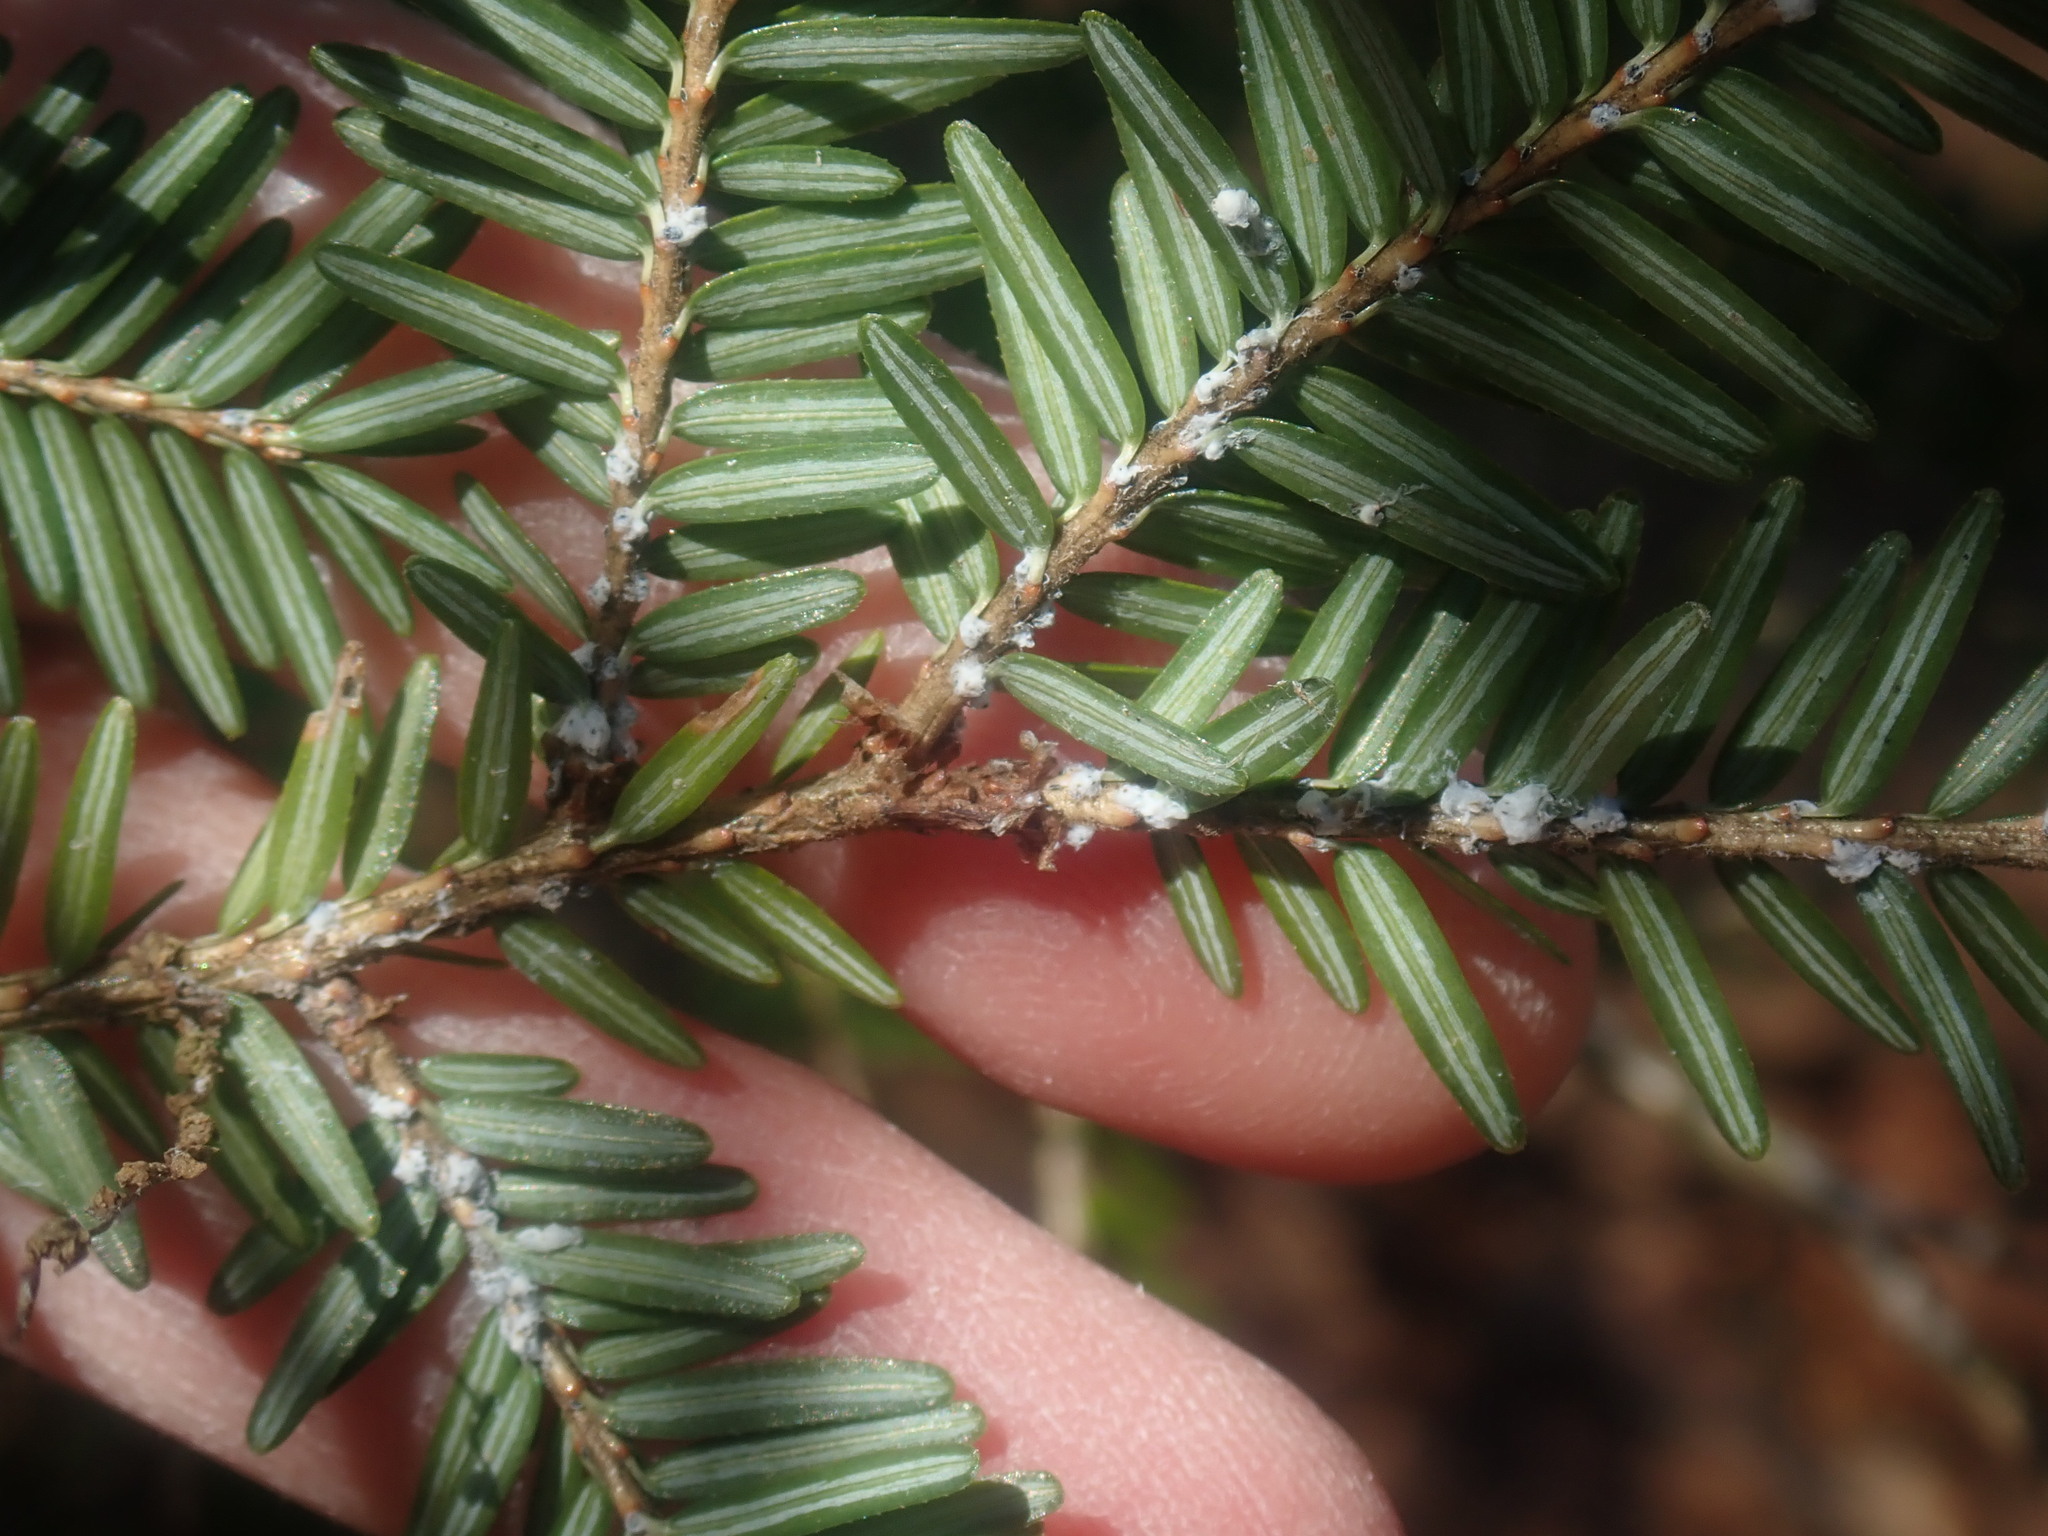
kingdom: Animalia
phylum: Arthropoda
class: Insecta
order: Hemiptera
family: Adelgidae
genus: Adelges
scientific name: Adelges tsugae
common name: Hemlock woolly adelgid
